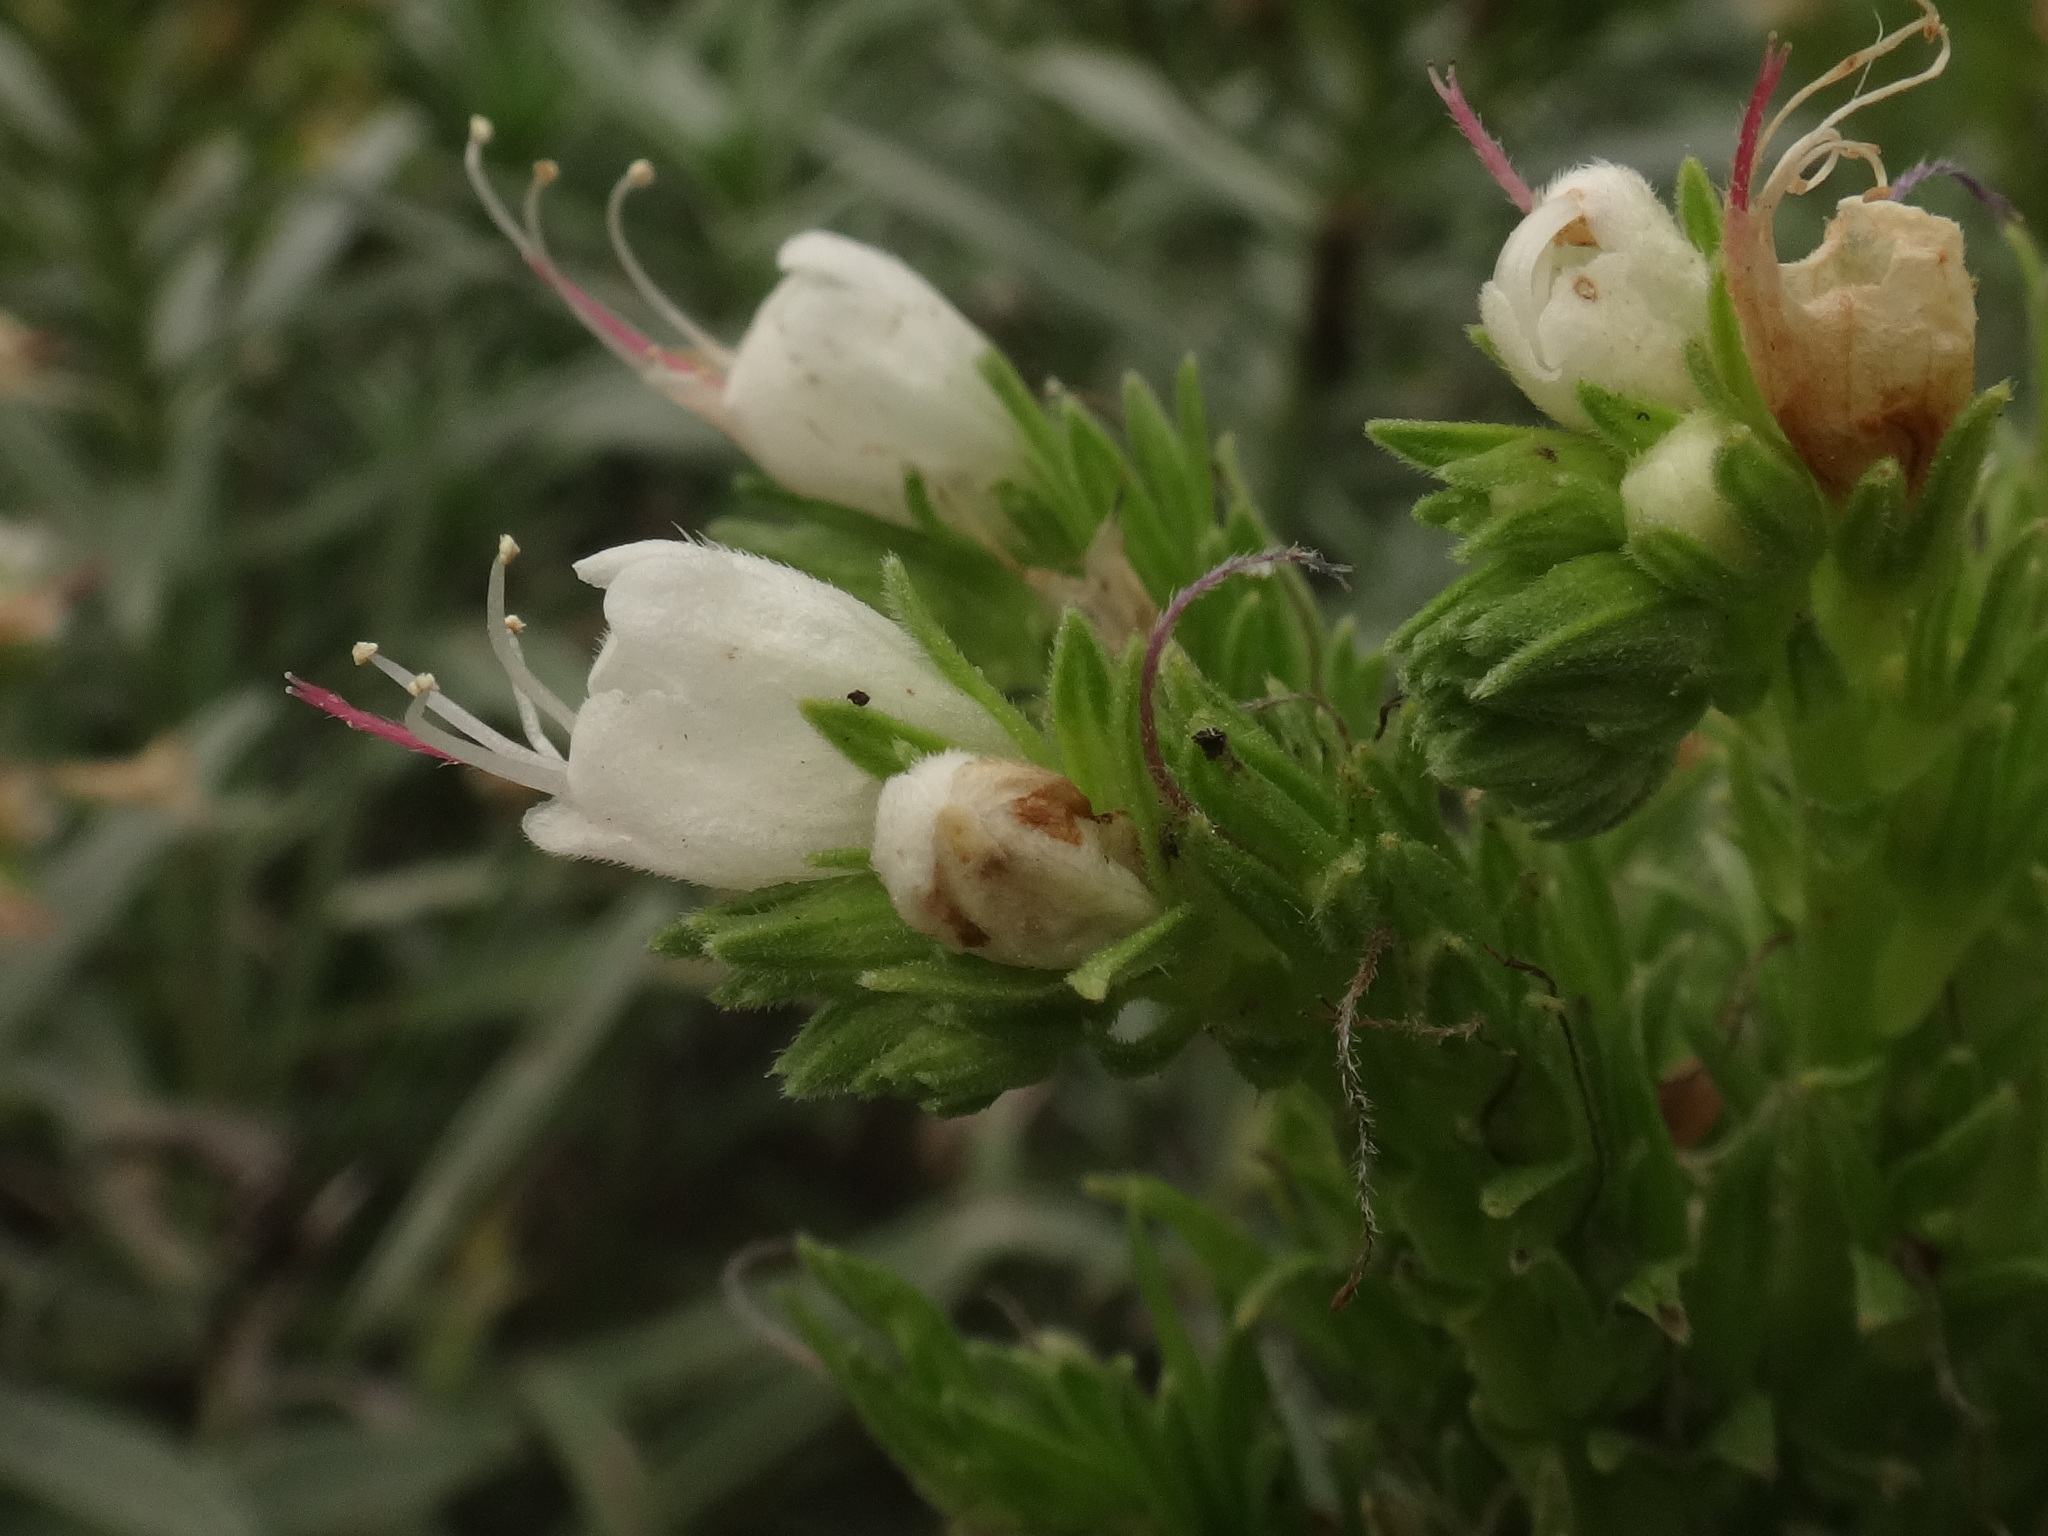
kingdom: Plantae
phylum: Tracheophyta
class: Magnoliopsida
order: Boraginales
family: Boraginaceae
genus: Echium
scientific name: Echium brevirame
